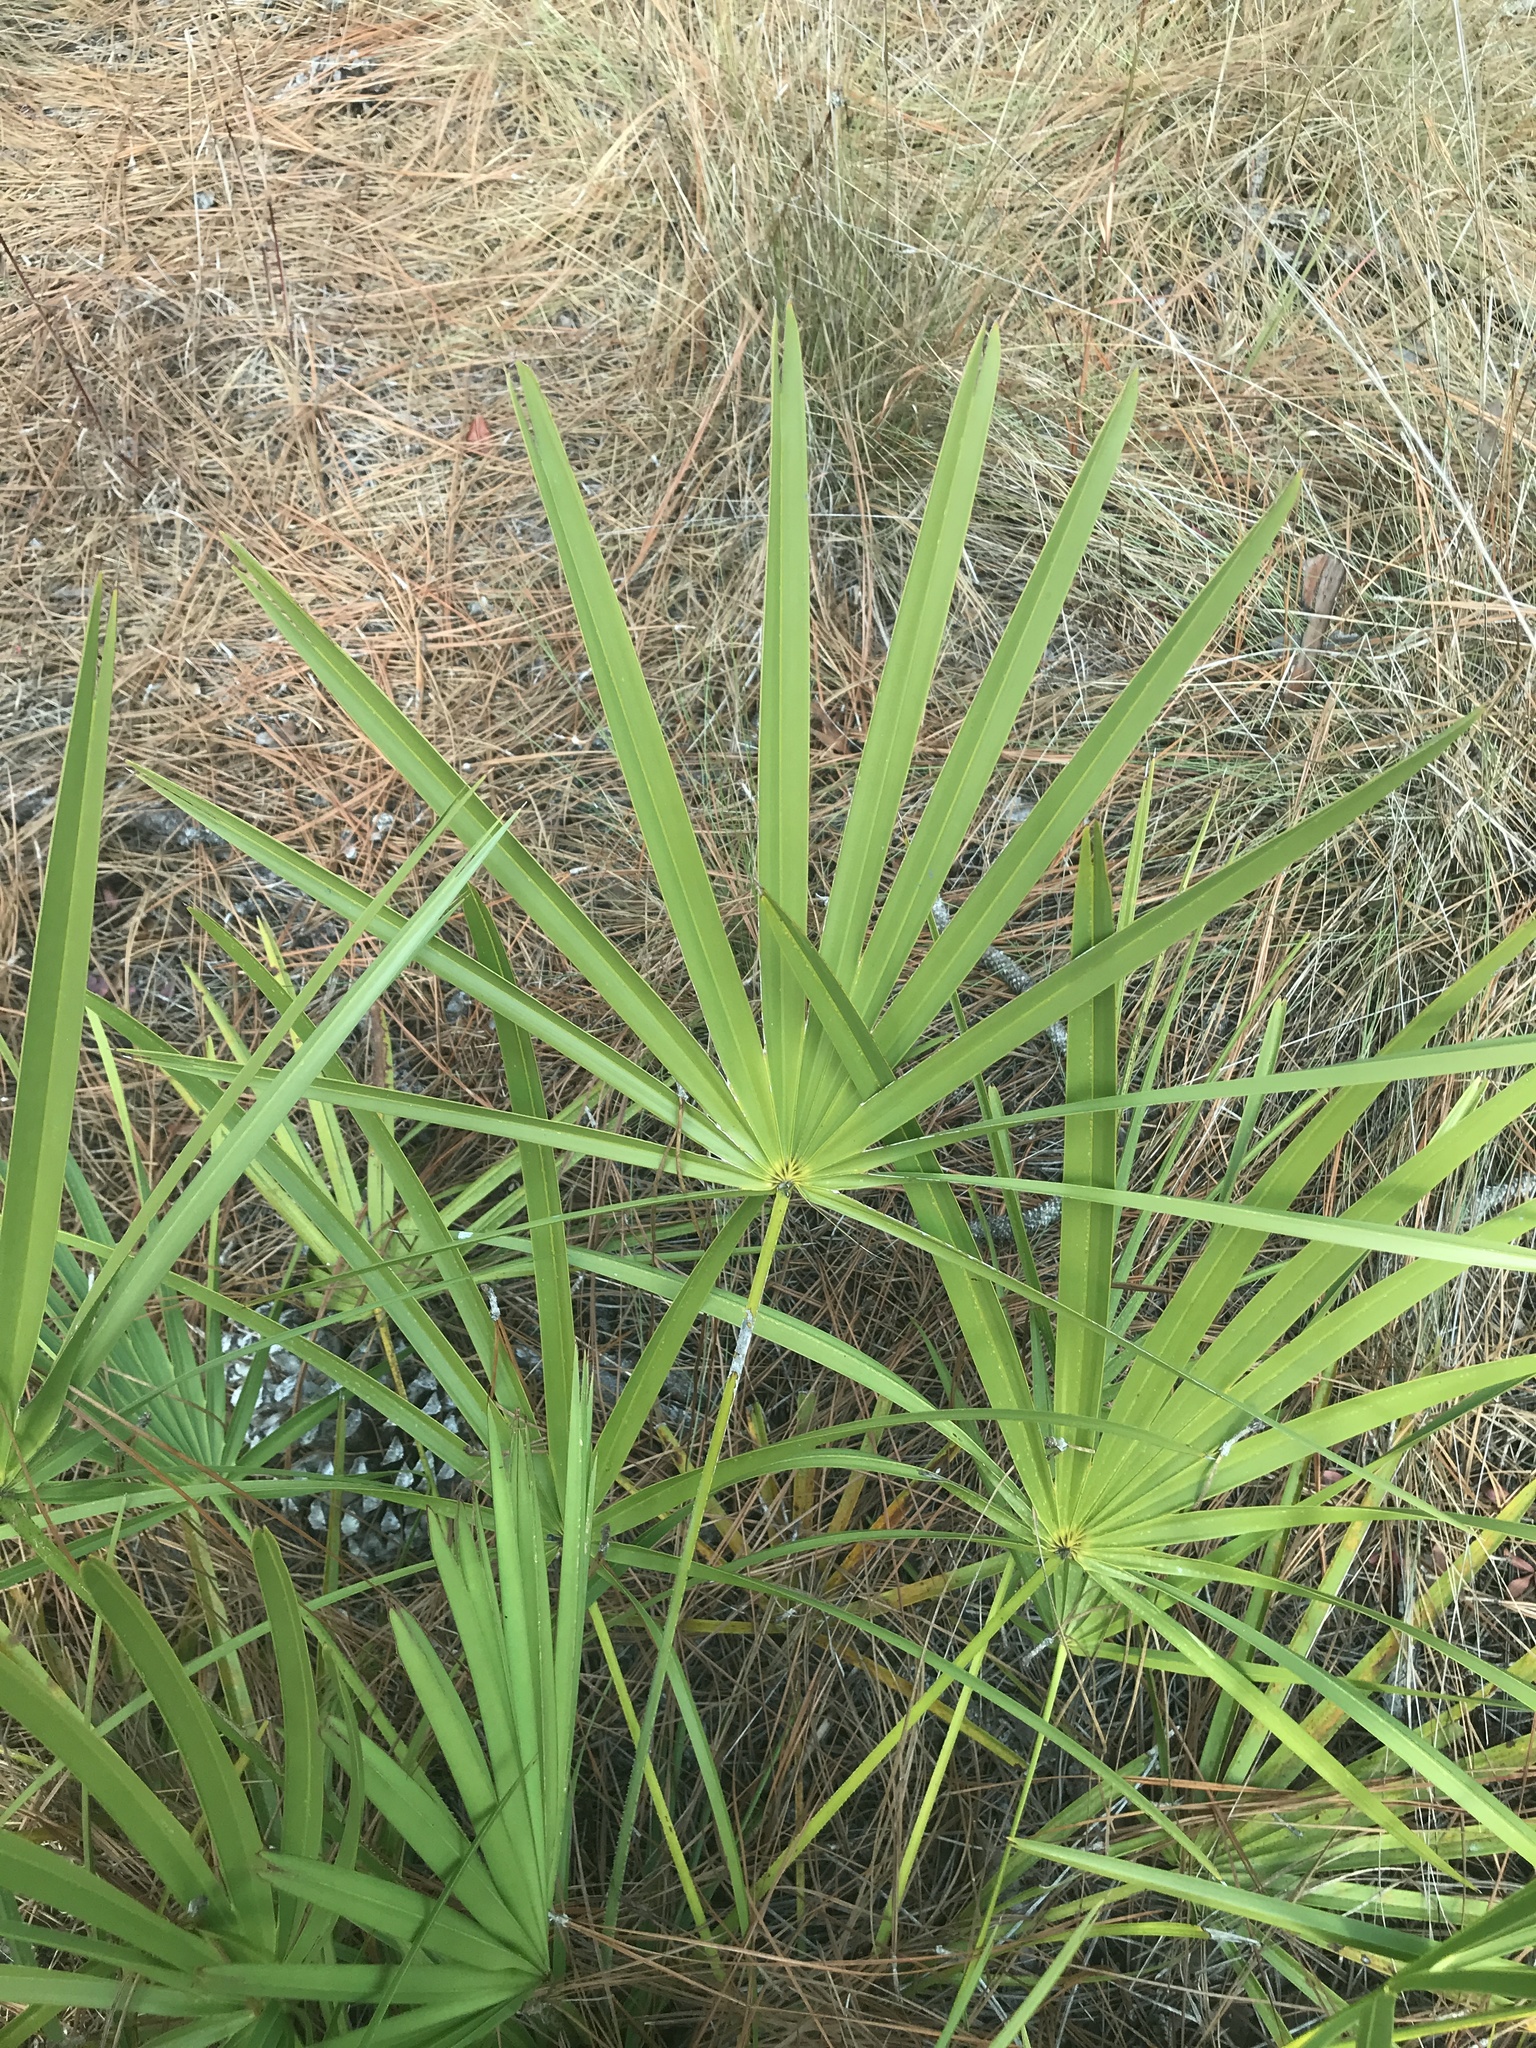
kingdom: Plantae
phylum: Tracheophyta
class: Liliopsida
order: Arecales
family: Arecaceae
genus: Serenoa
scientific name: Serenoa repens
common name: Saw-palmetto
